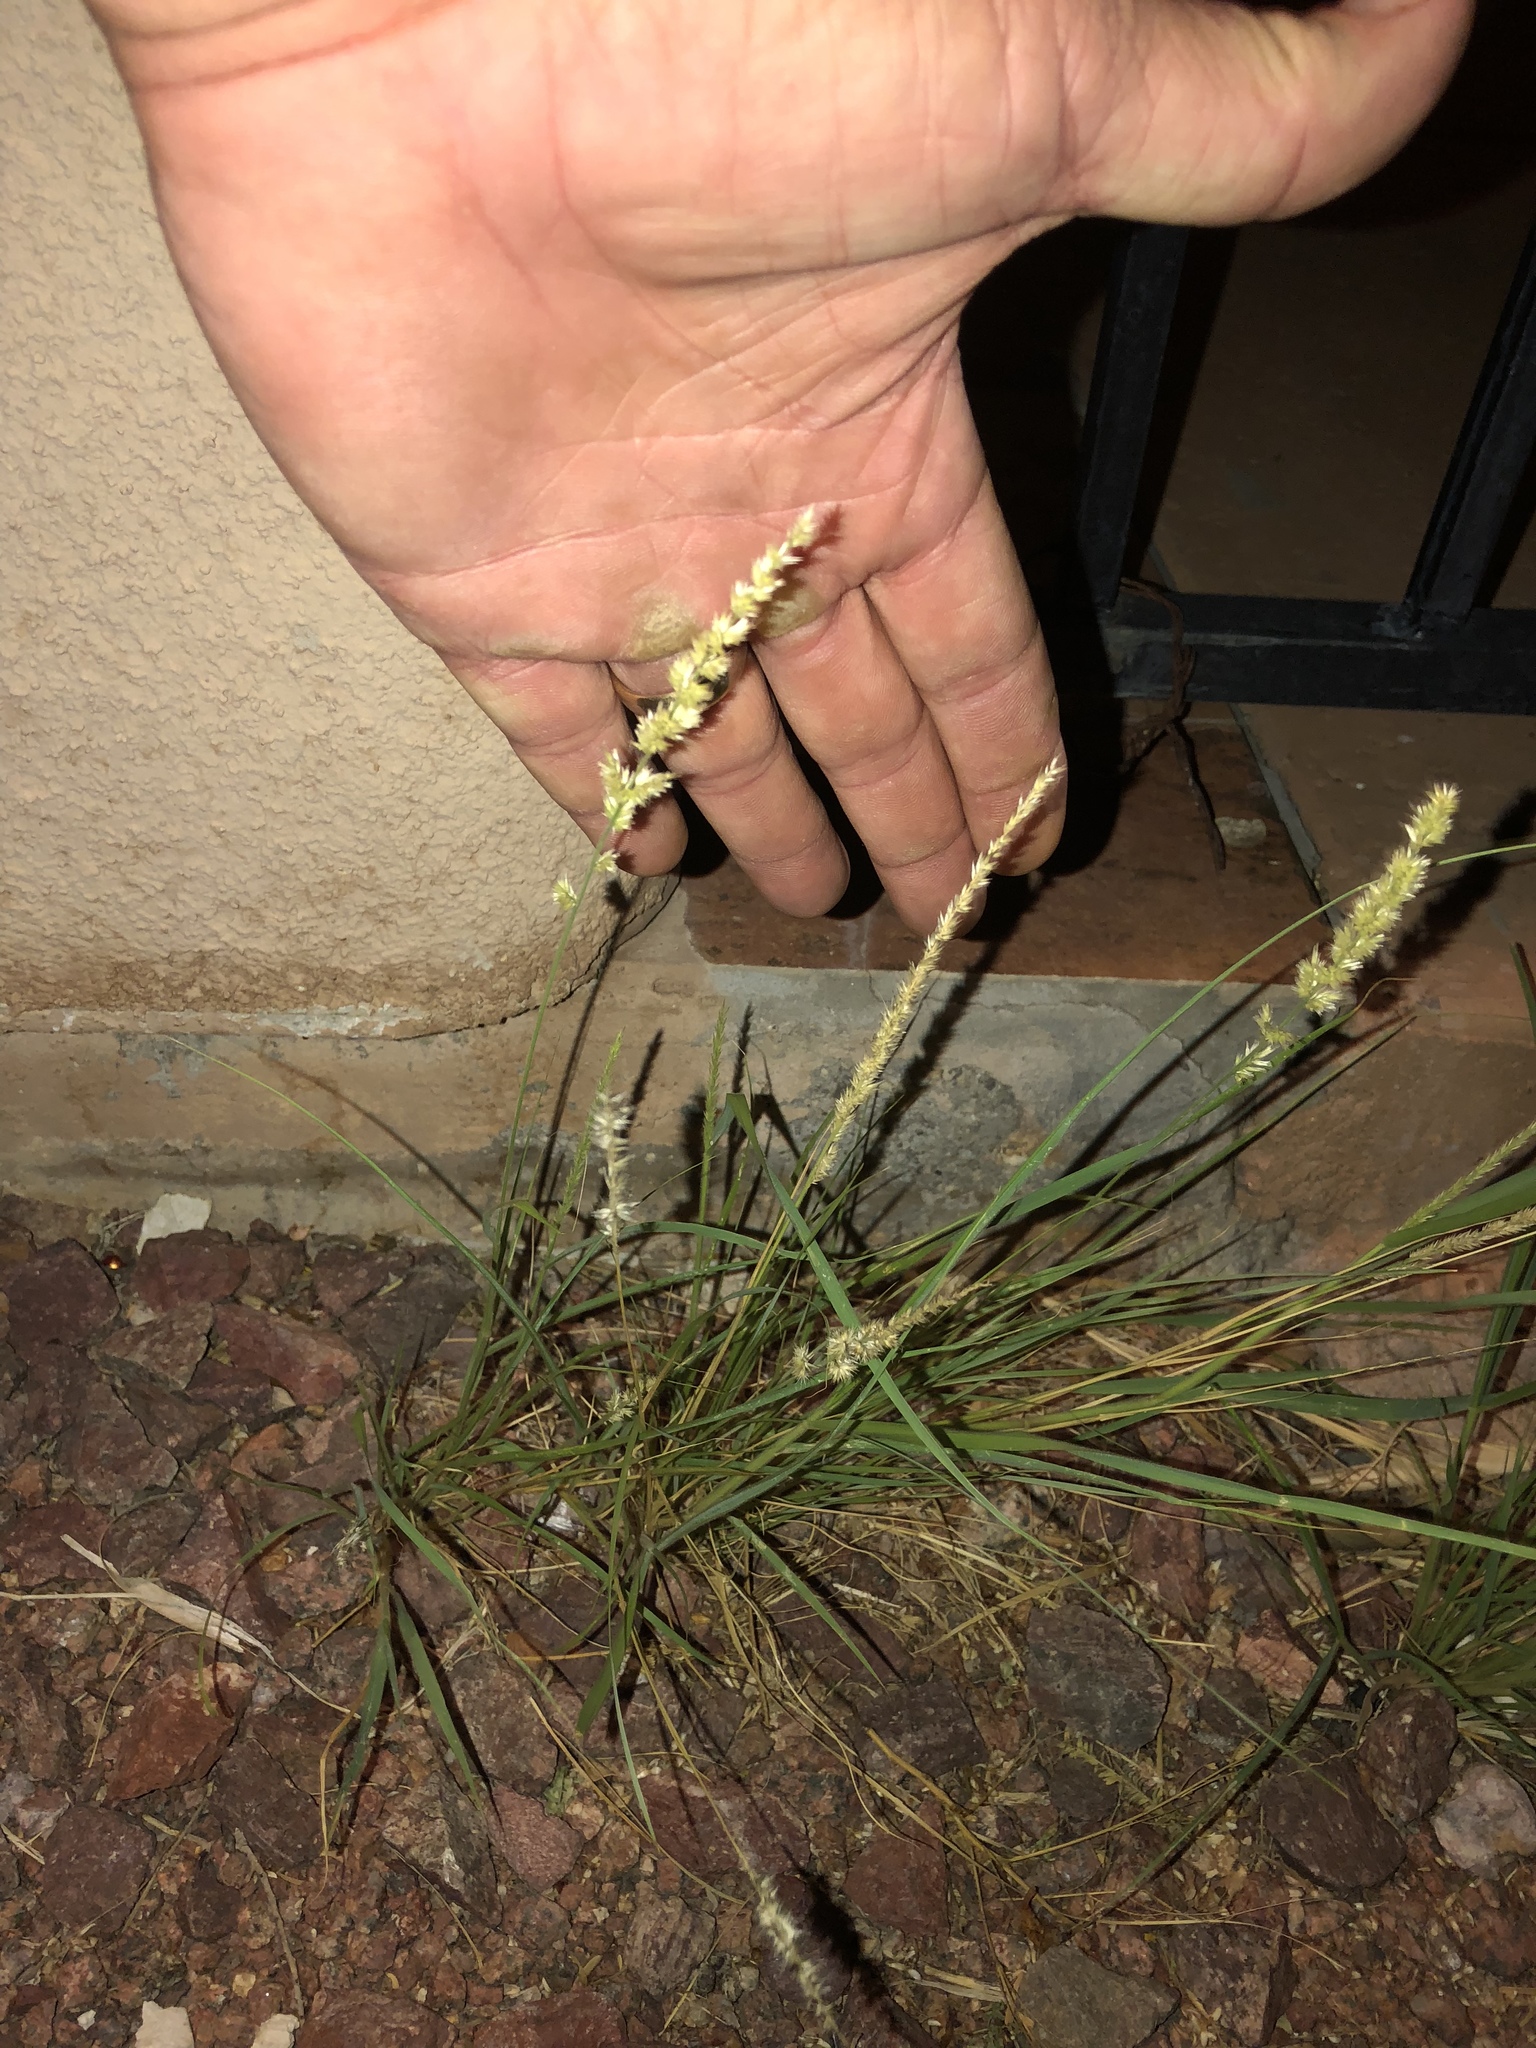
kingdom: Plantae
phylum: Tracheophyta
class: Liliopsida
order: Poales
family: Poaceae
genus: Enneapogon
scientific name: Enneapogon cenchroides
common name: Soft feather pappusgrass
